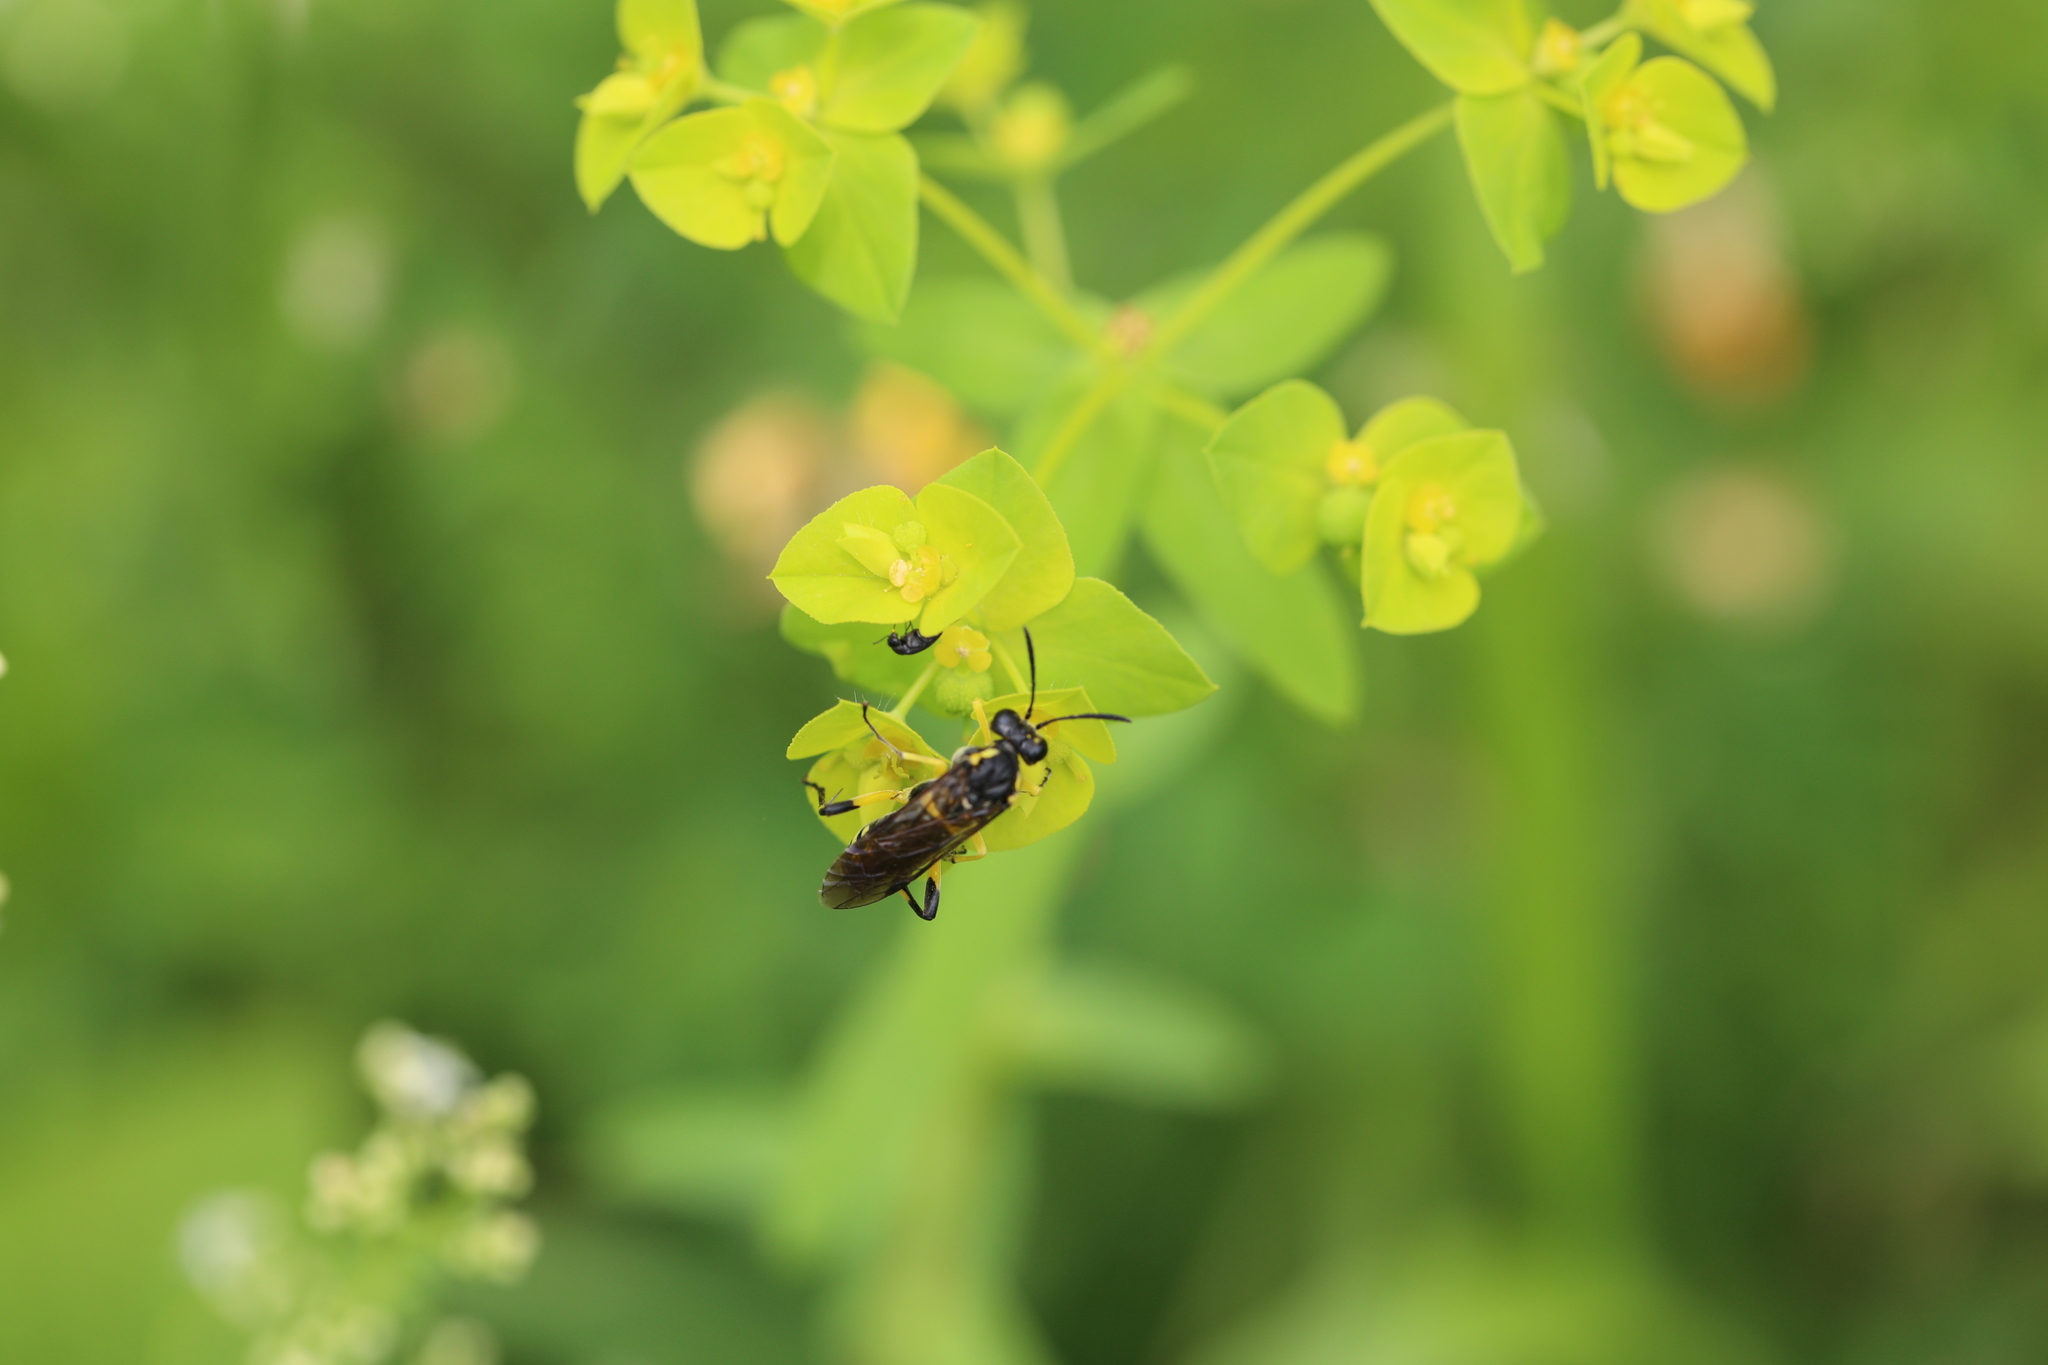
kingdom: Animalia
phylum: Arthropoda
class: Insecta
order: Hymenoptera
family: Tenthredinidae
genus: Macrophya
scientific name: Macrophya montana
